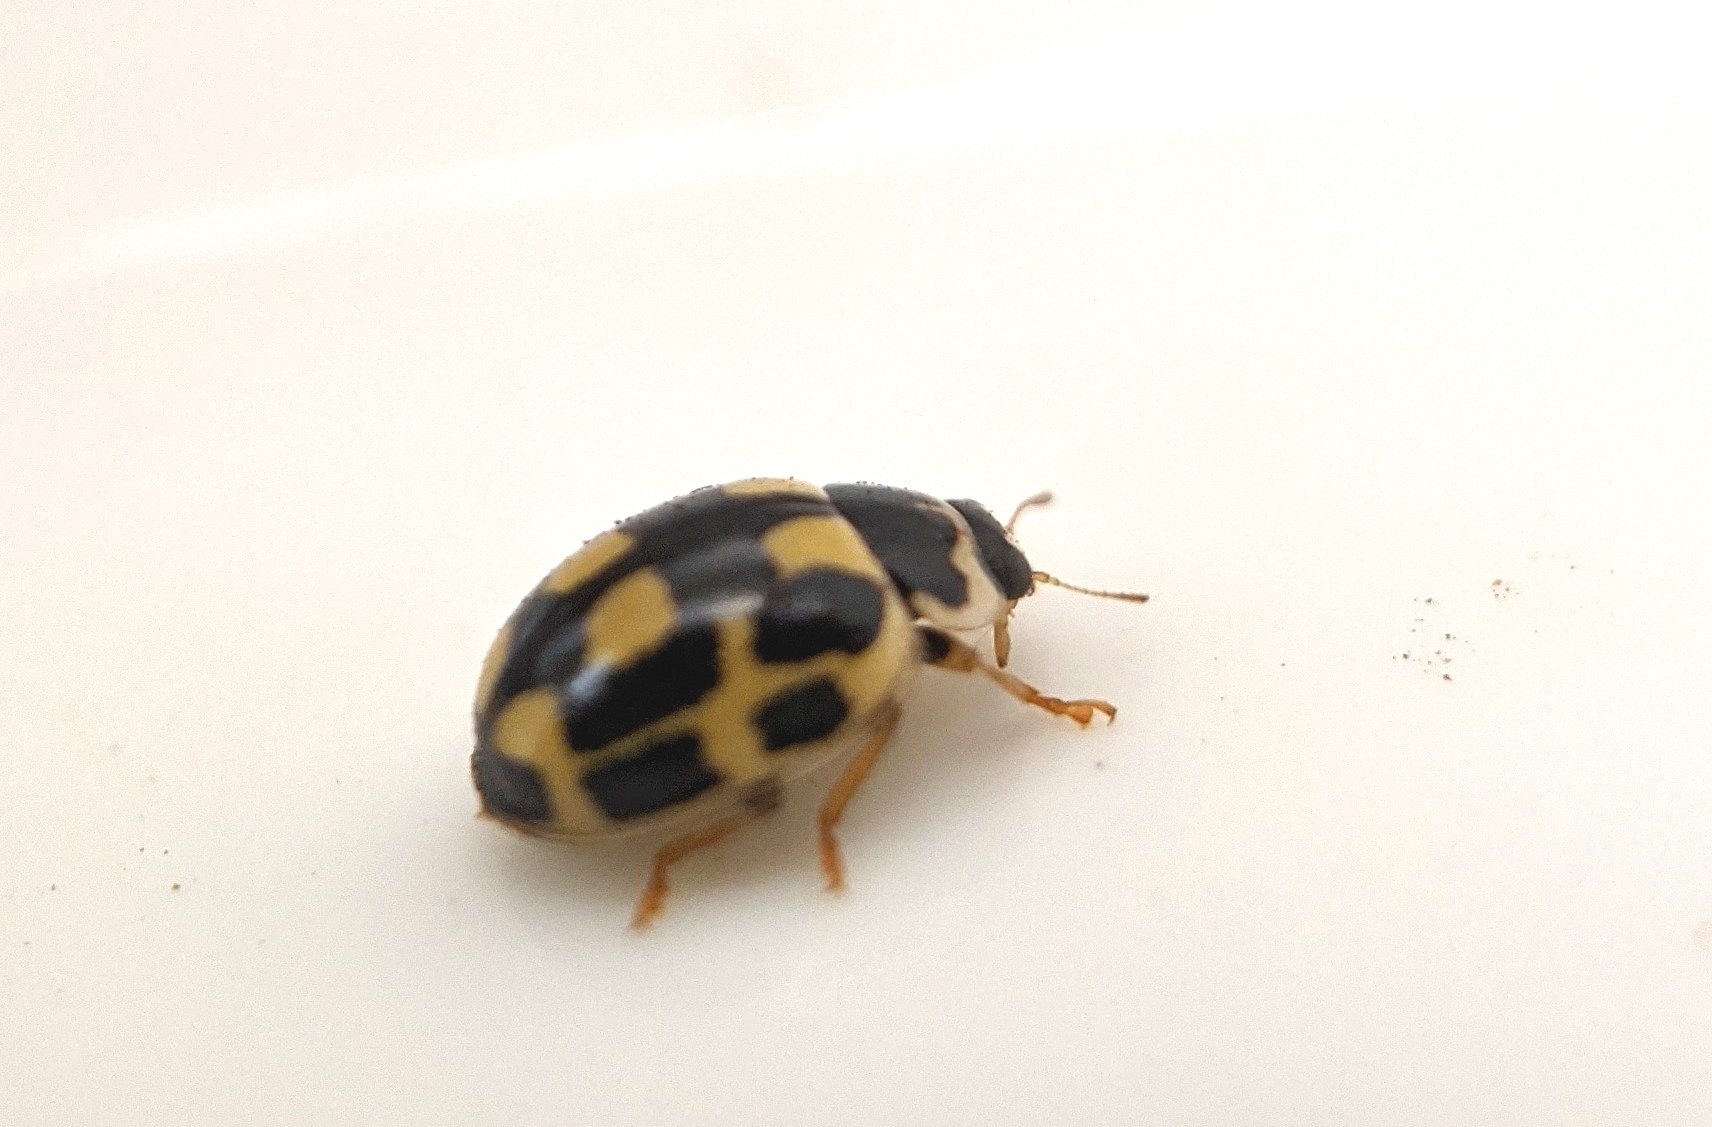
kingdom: Animalia
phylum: Arthropoda
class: Insecta
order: Coleoptera
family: Coccinellidae
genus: Propylaea
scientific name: Propylaea quatuordecimpunctata
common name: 14-spotted ladybird beetle
